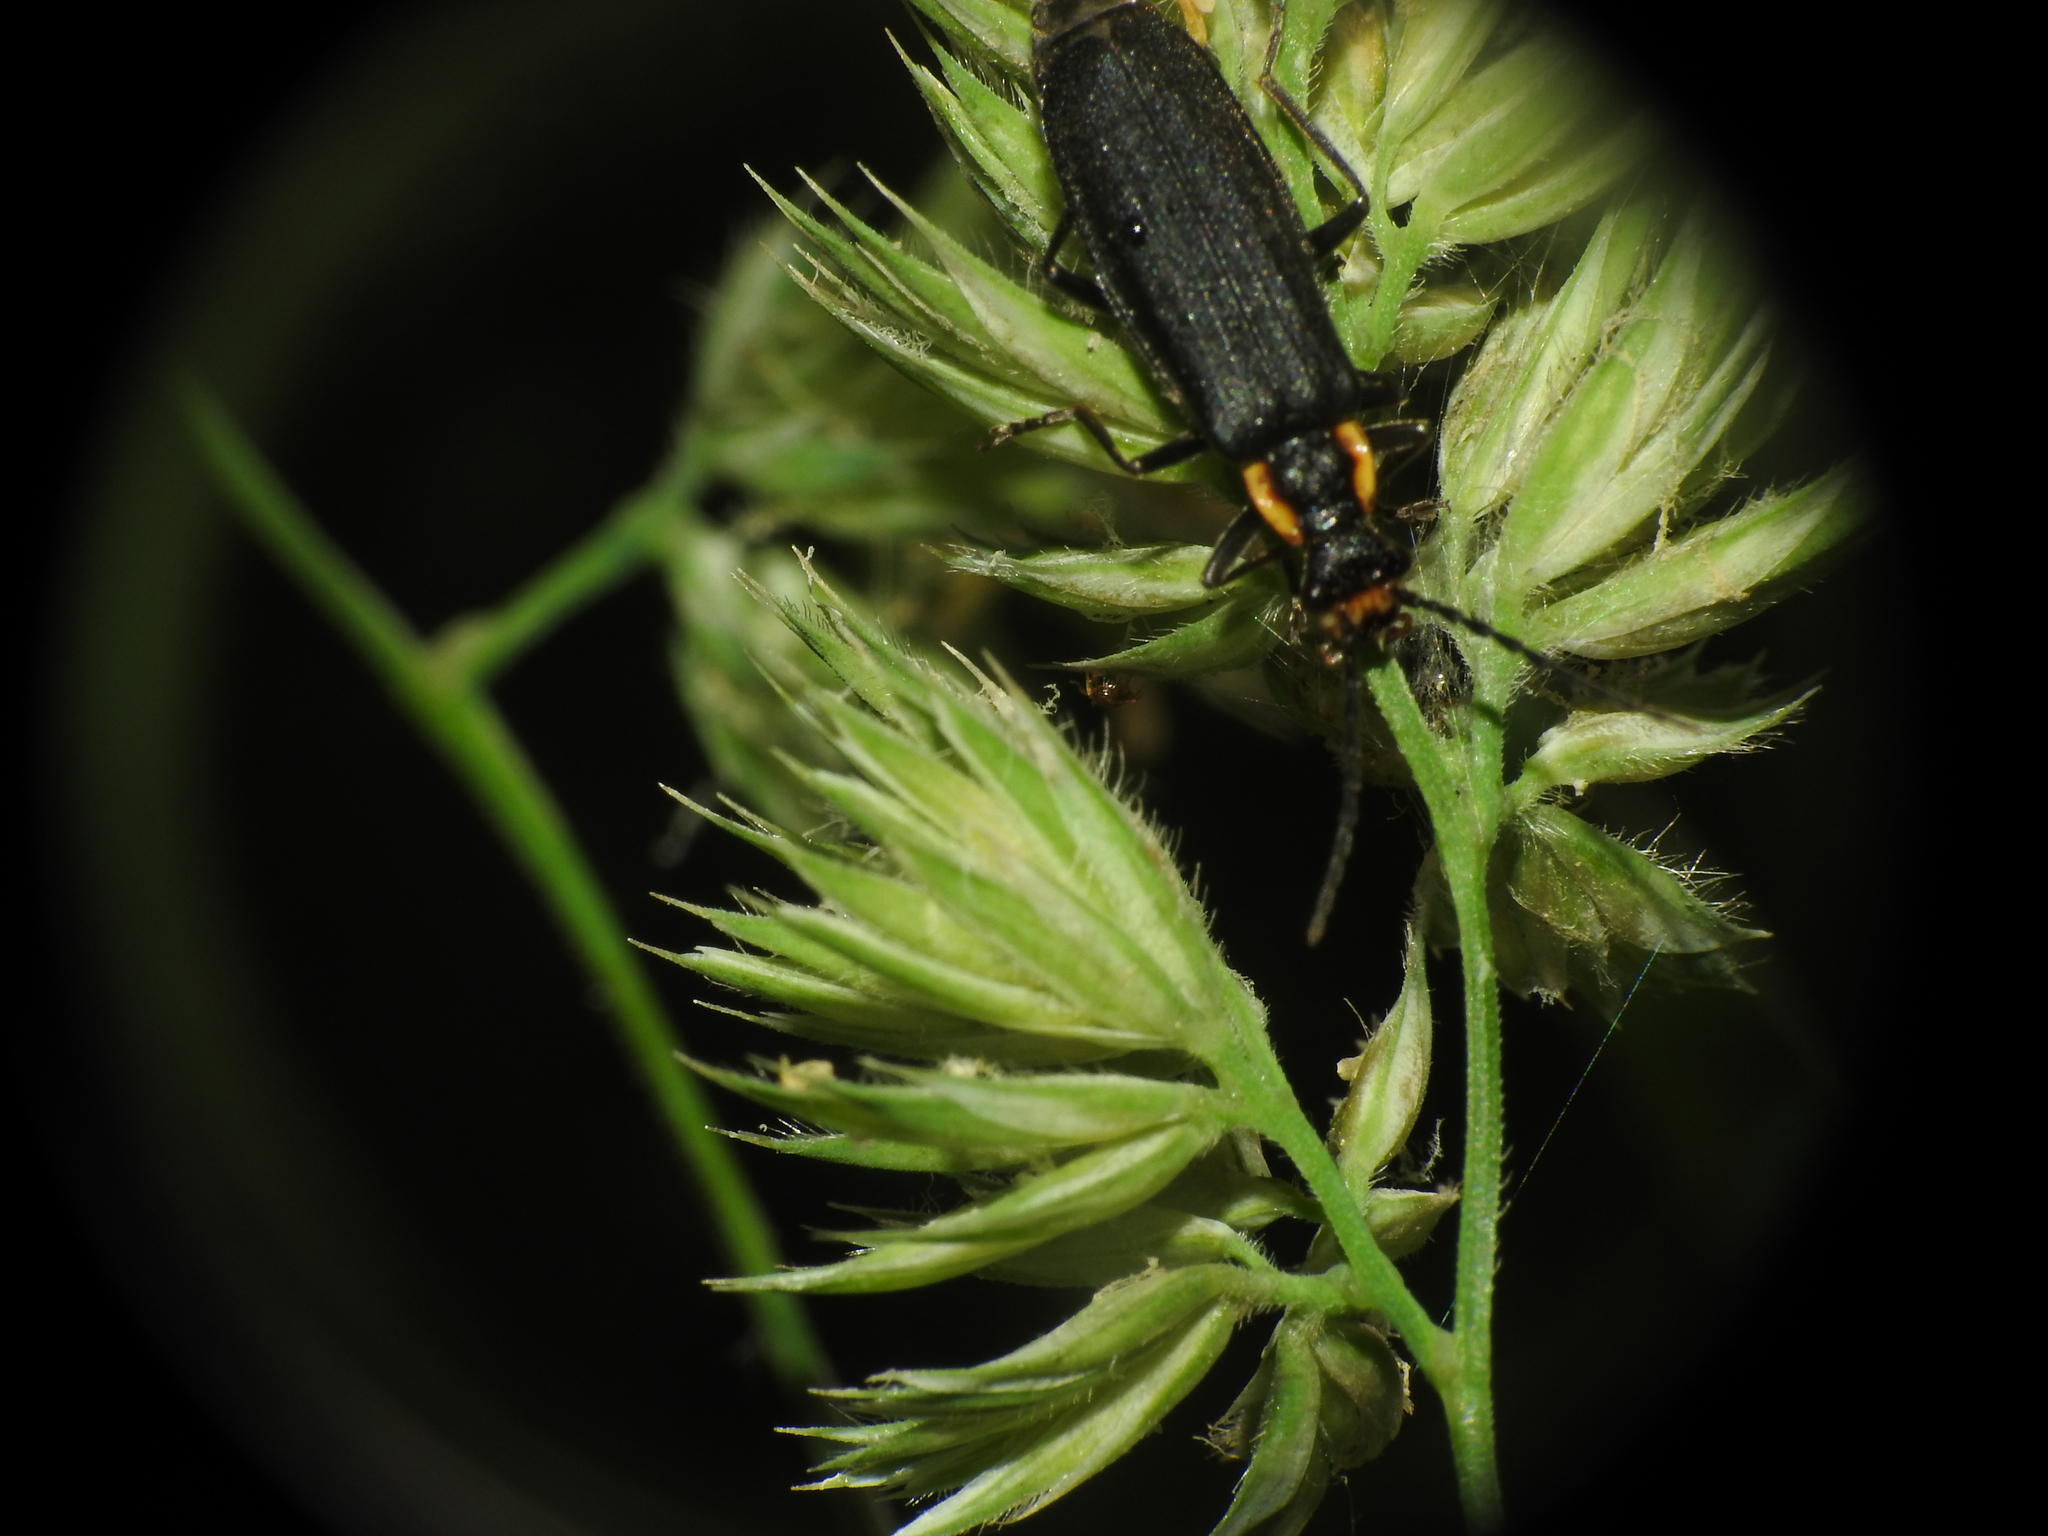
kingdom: Animalia
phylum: Arthropoda
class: Insecta
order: Coleoptera
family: Cantharidae
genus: Podabrus
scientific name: Podabrus rugosulus
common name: Wrinkled soldier beetle
